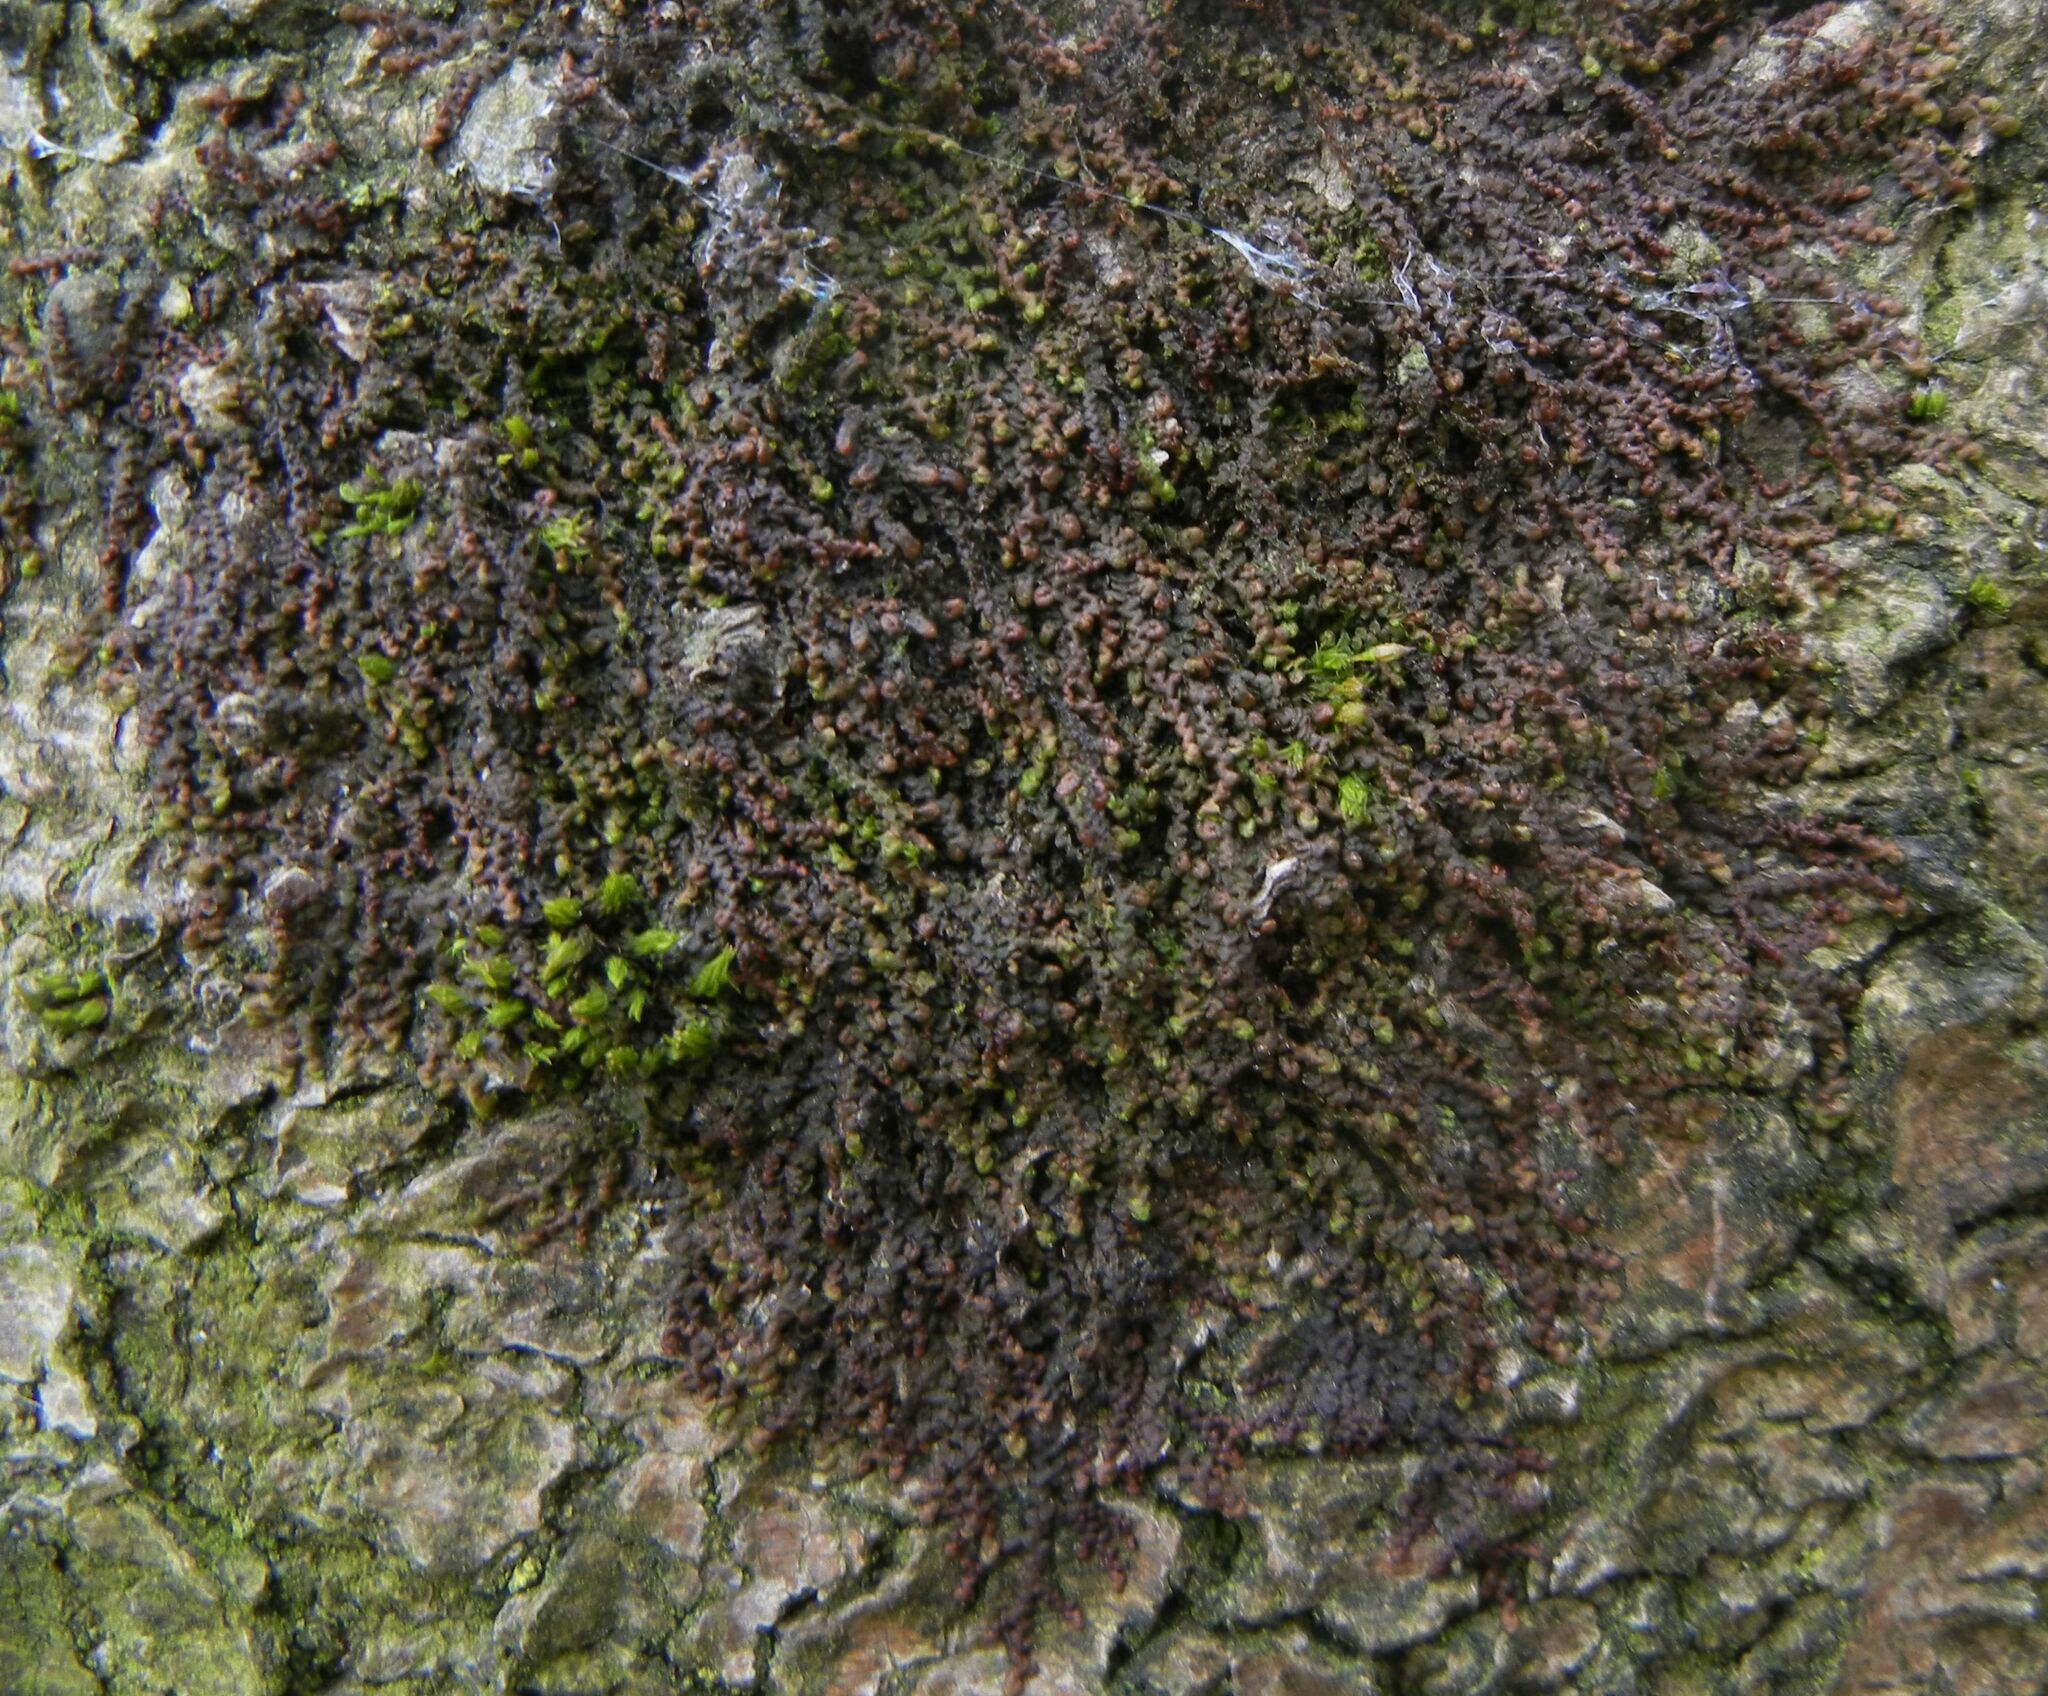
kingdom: Plantae
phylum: Marchantiophyta
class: Jungermanniopsida
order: Porellales
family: Frullaniaceae
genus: Frullania
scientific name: Frullania dilatata
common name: Dilated scalewort
